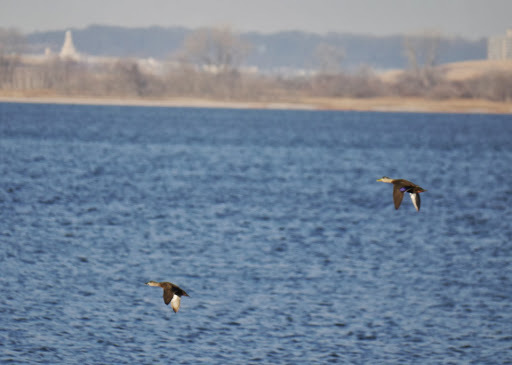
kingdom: Animalia
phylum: Chordata
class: Aves
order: Anseriformes
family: Anatidae
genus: Anas
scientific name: Anas rubripes
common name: American black duck
